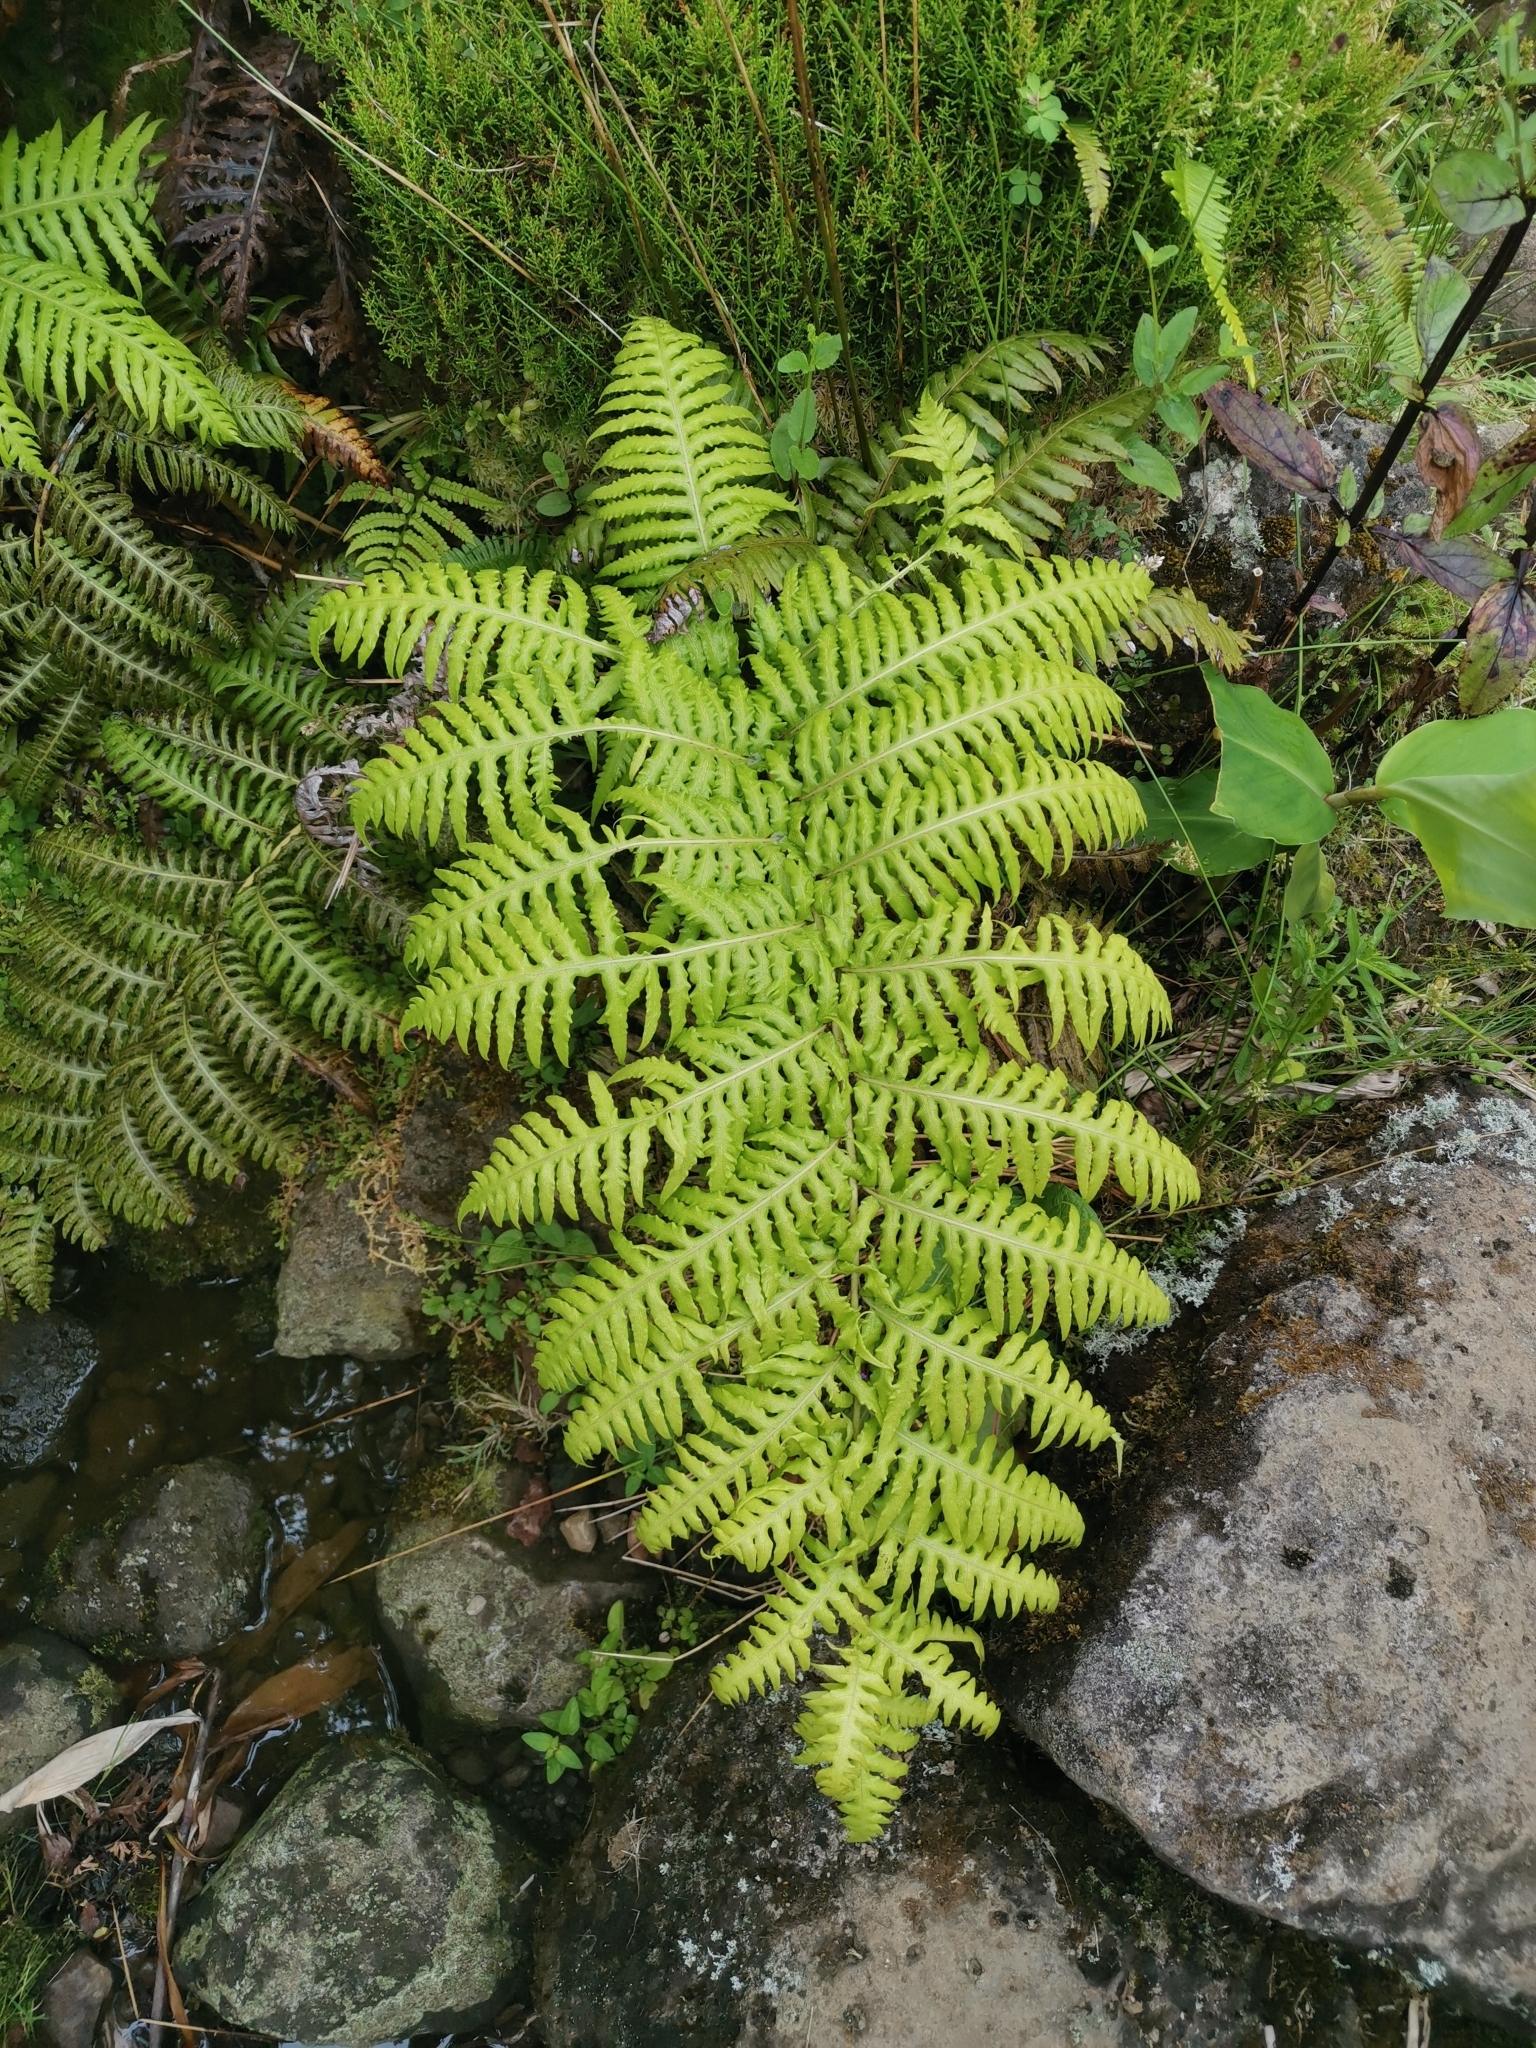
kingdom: Plantae
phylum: Tracheophyta
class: Polypodiopsida
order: Polypodiales
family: Blechnaceae
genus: Woodwardia
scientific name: Woodwardia radicans
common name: Rooting chainfern
